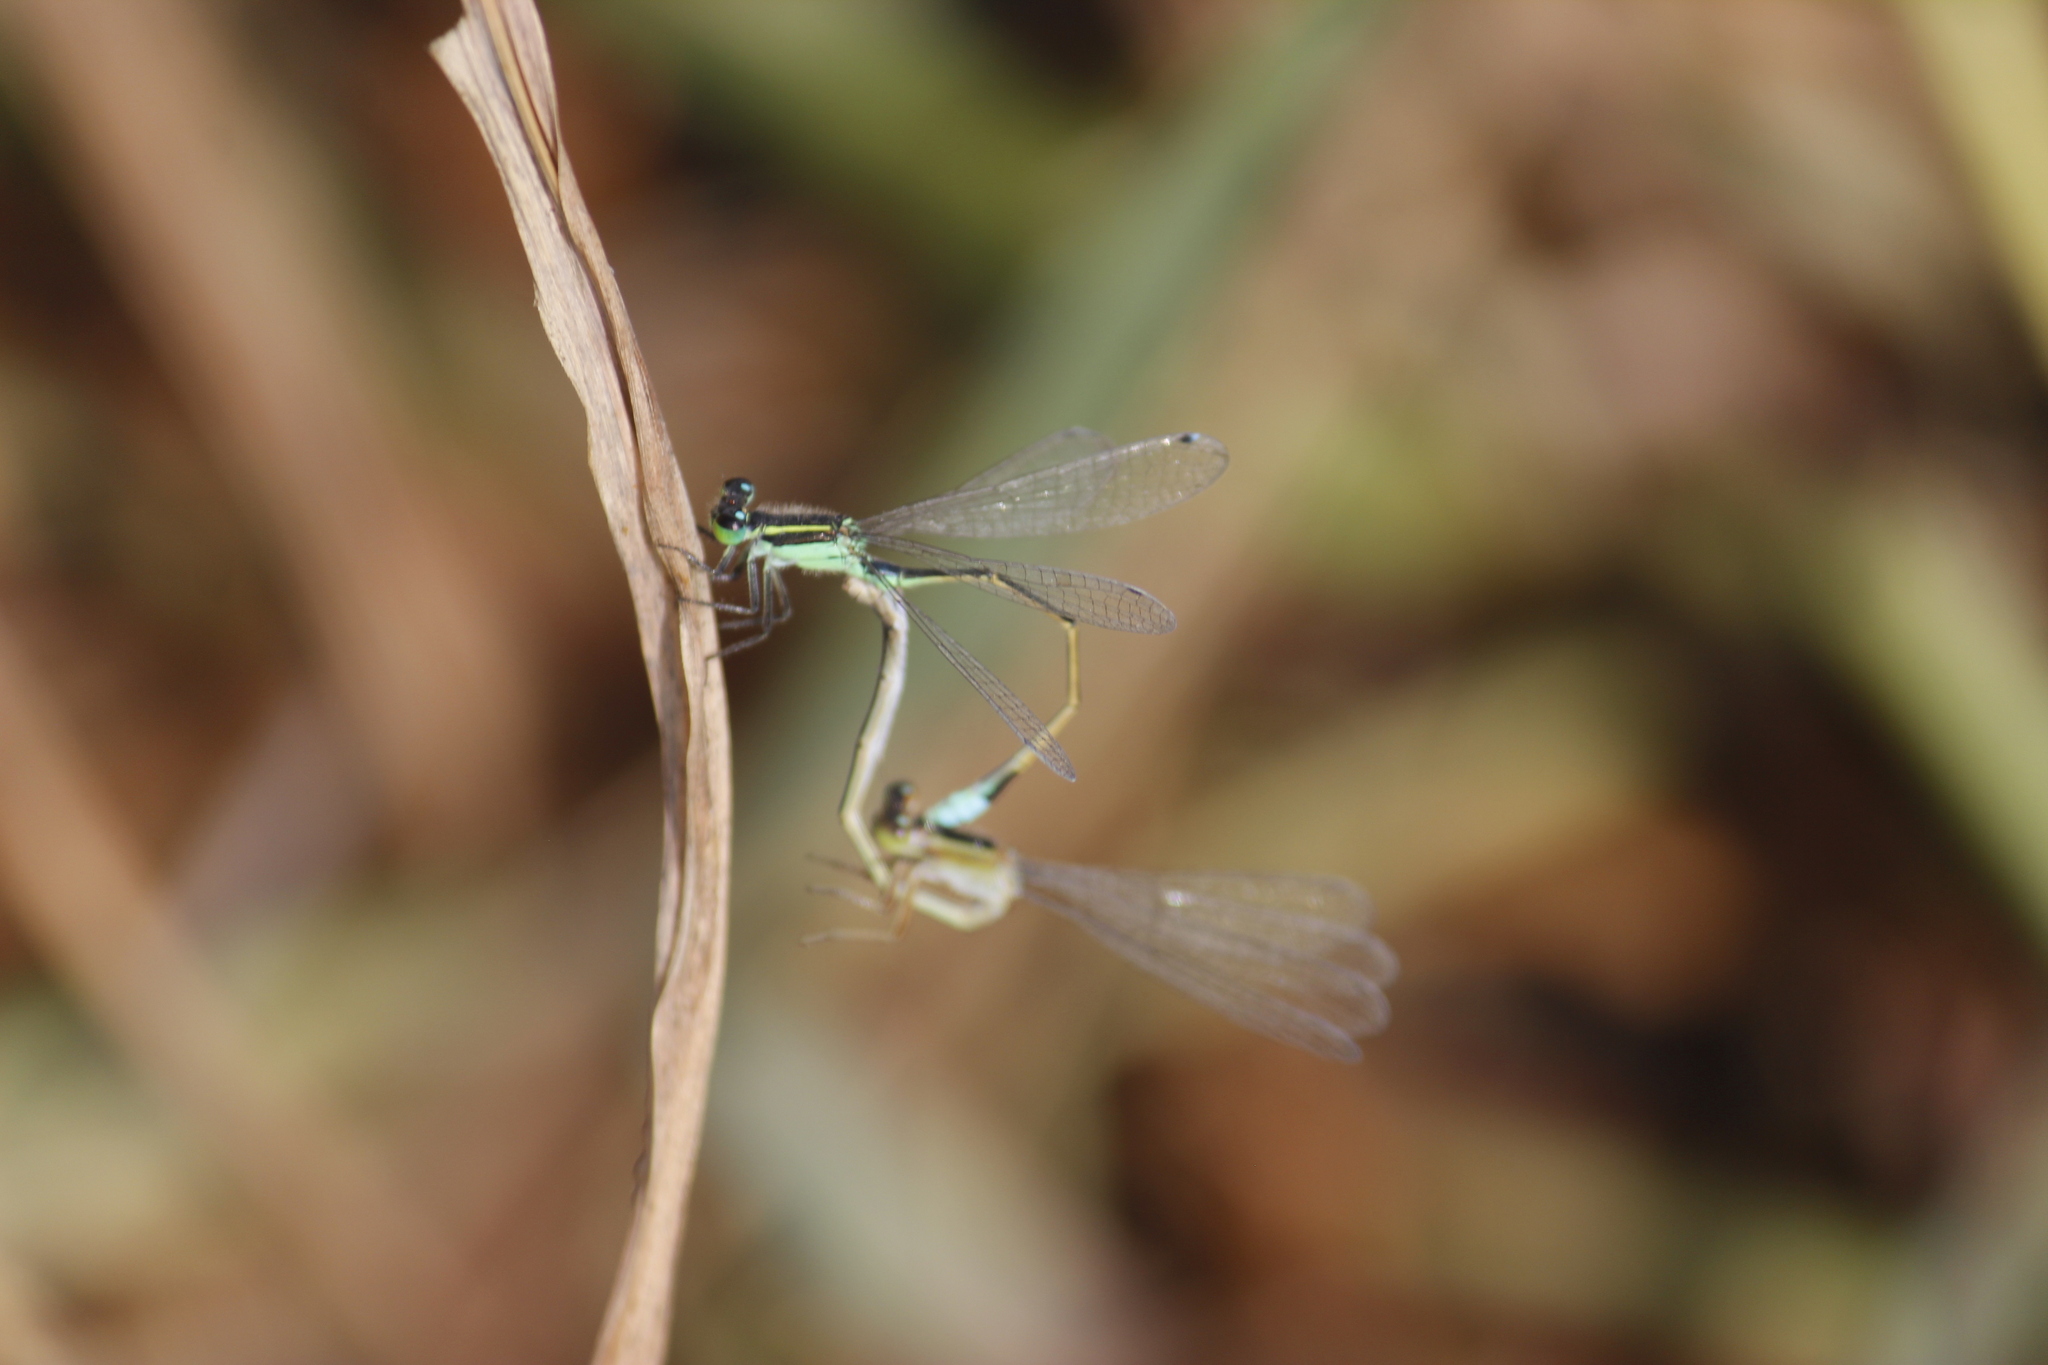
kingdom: Animalia
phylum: Arthropoda
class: Insecta
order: Odonata
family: Coenagrionidae
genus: Ischnura
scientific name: Ischnura ramburii
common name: Rambur's forktail
